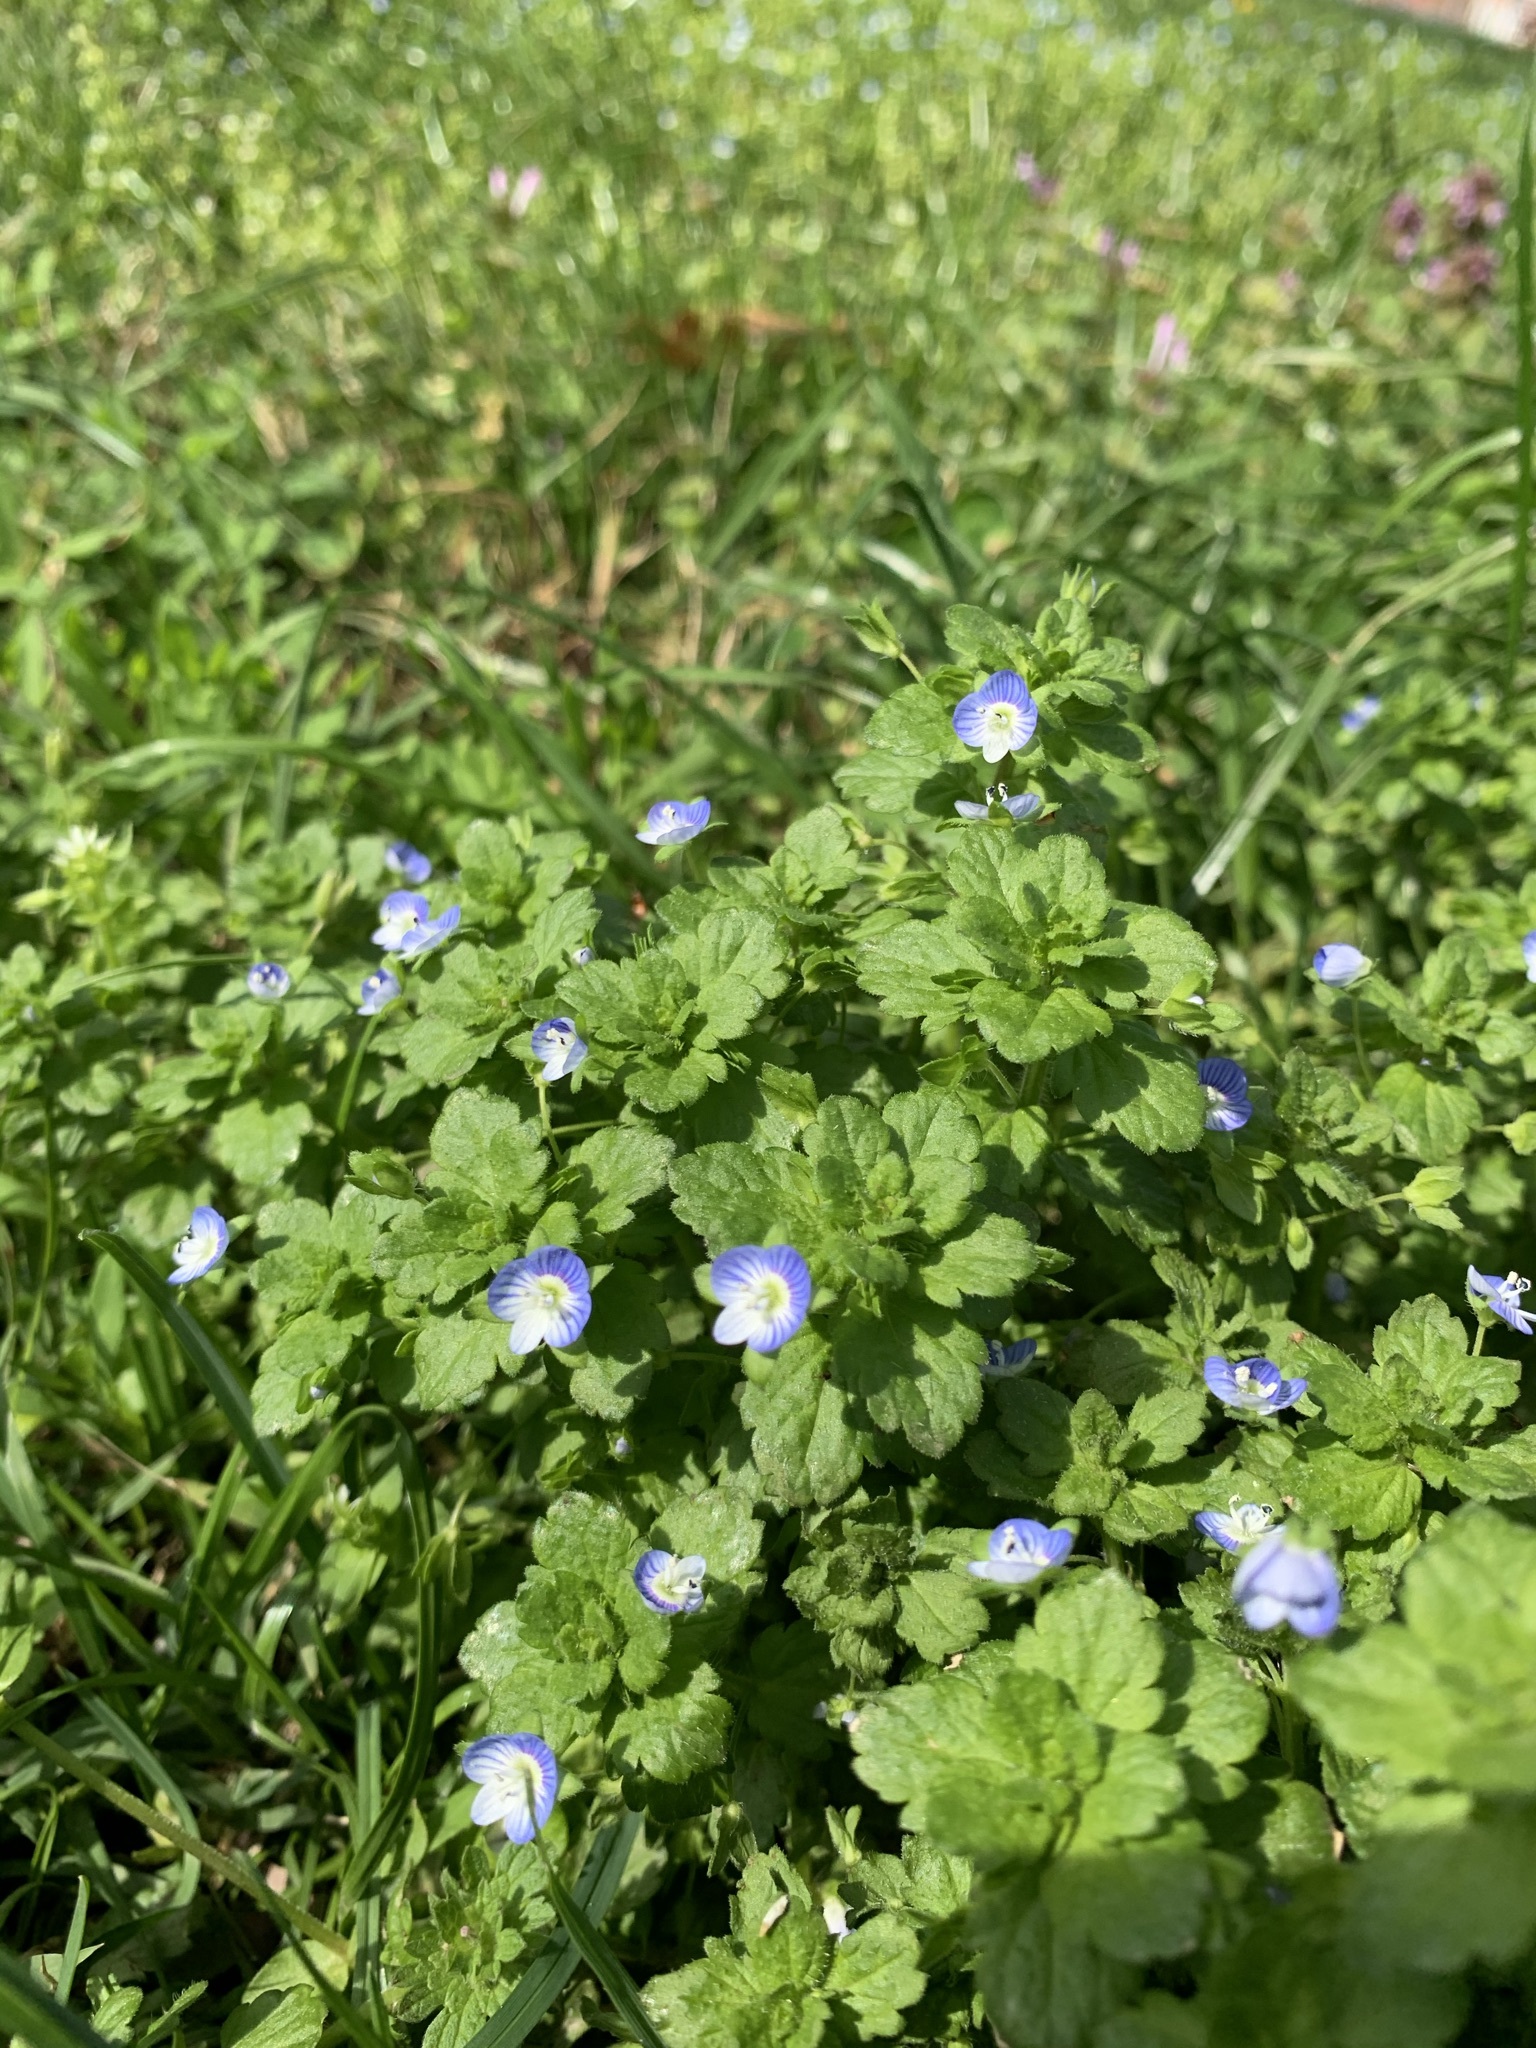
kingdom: Plantae
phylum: Tracheophyta
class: Magnoliopsida
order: Lamiales
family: Plantaginaceae
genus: Veronica
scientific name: Veronica persica
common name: Common field-speedwell
